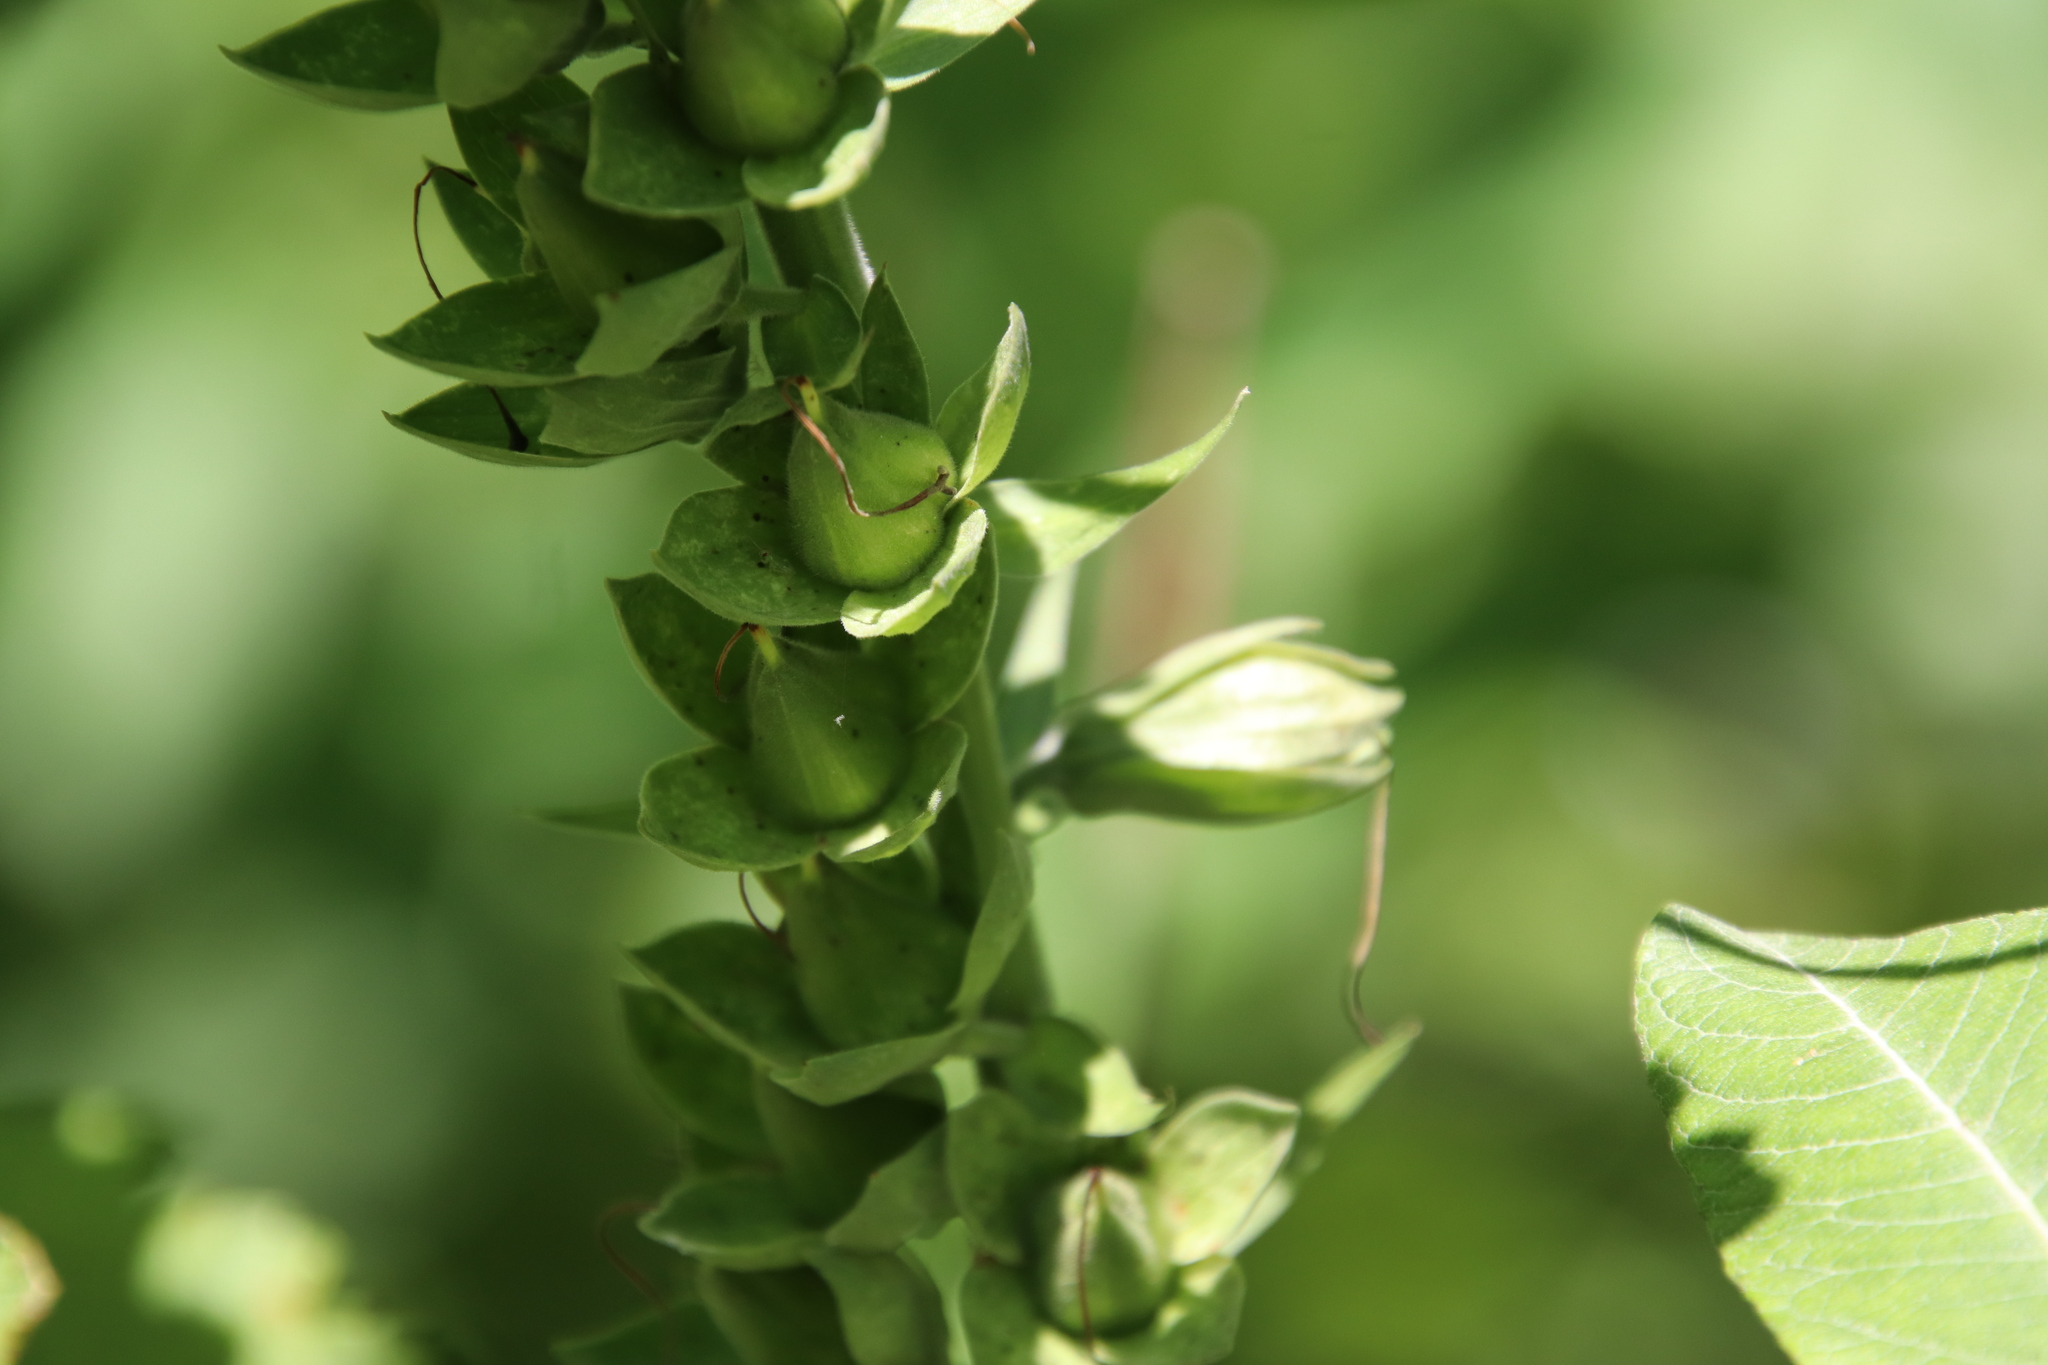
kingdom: Plantae
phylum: Tracheophyta
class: Magnoliopsida
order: Lamiales
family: Plantaginaceae
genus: Digitalis
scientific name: Digitalis purpurea
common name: Foxglove
